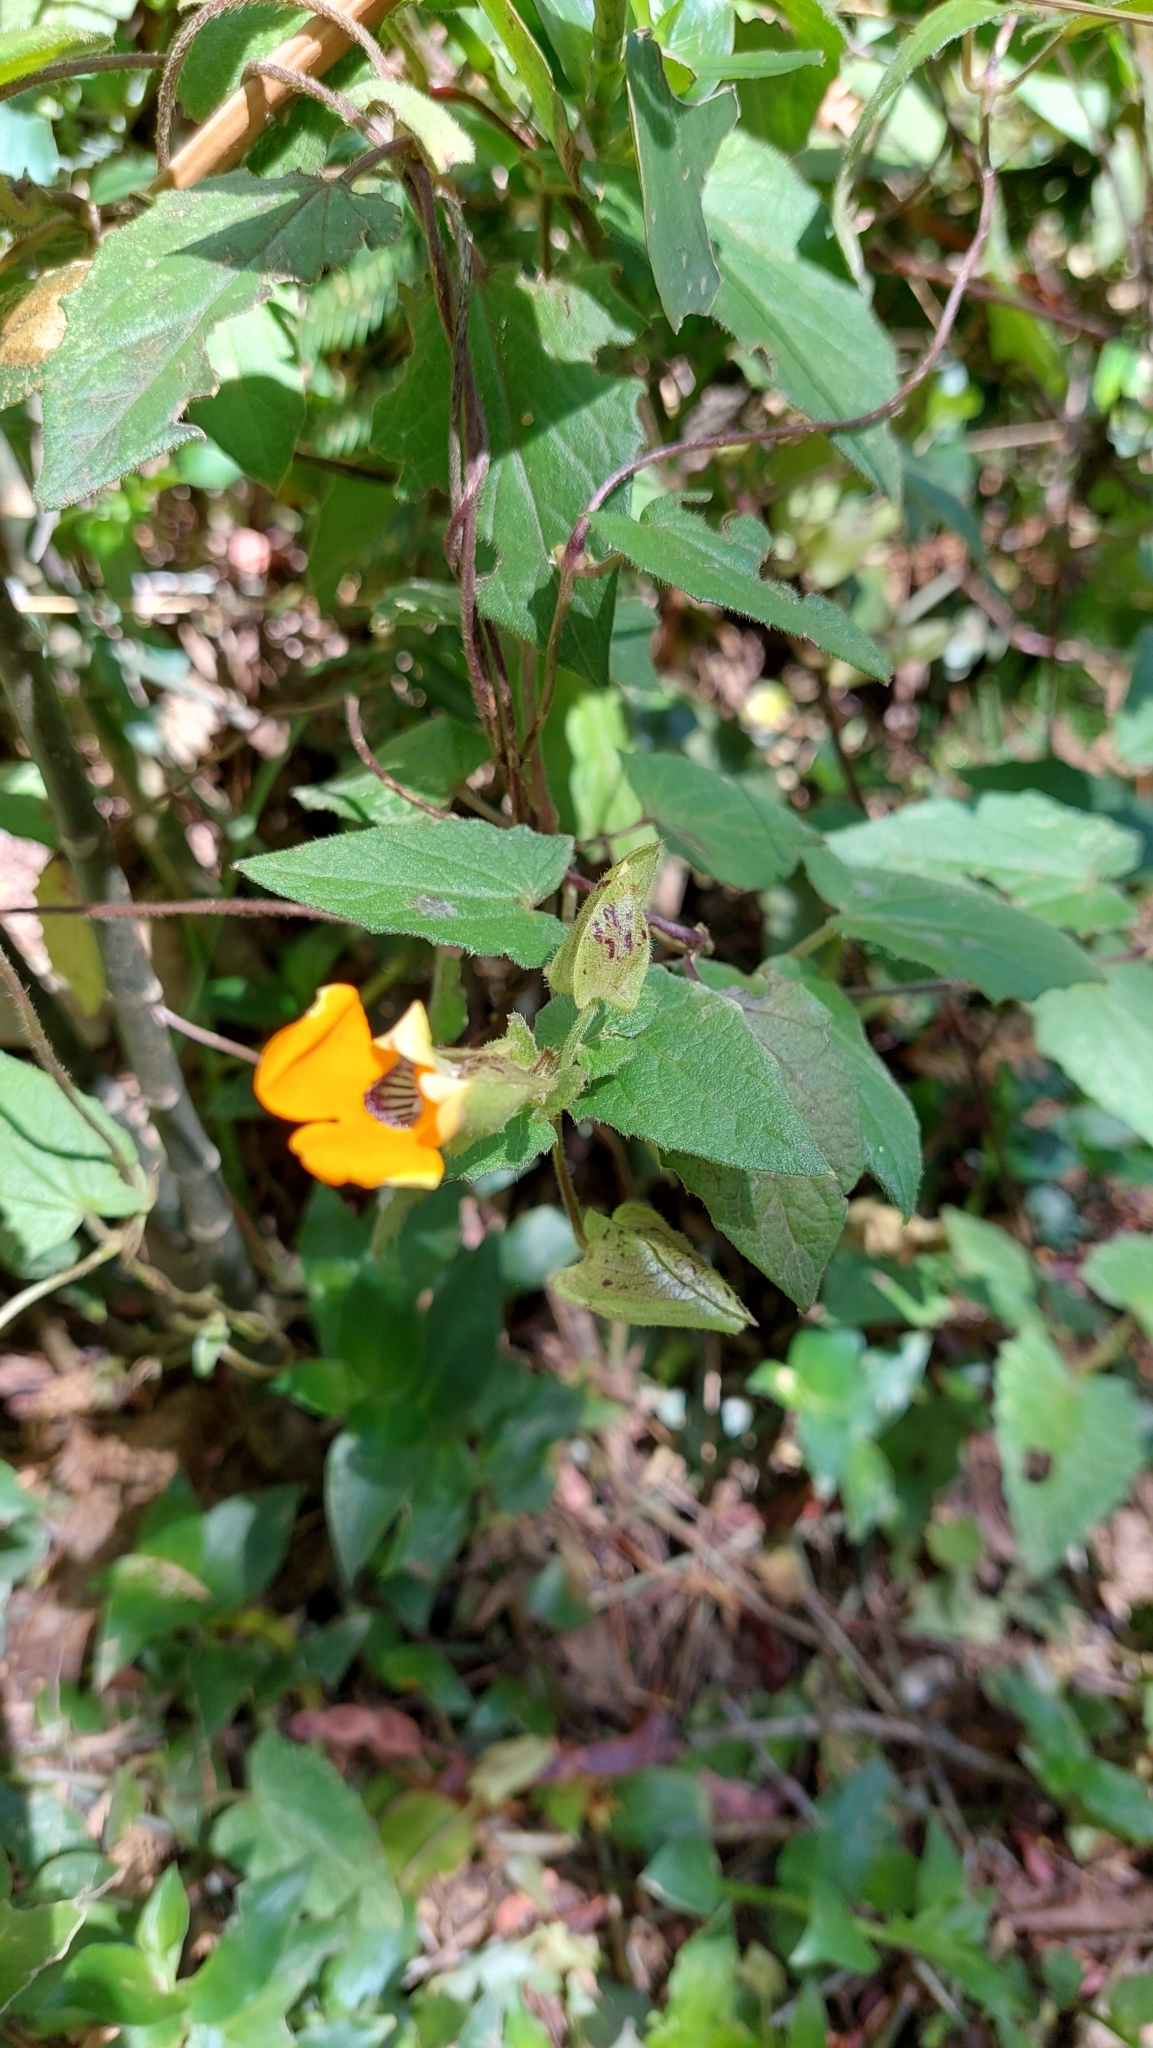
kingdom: Plantae
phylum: Tracheophyta
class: Magnoliopsida
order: Lamiales
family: Acanthaceae
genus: Thunbergia
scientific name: Thunbergia alata
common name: Blackeyed susan vine
